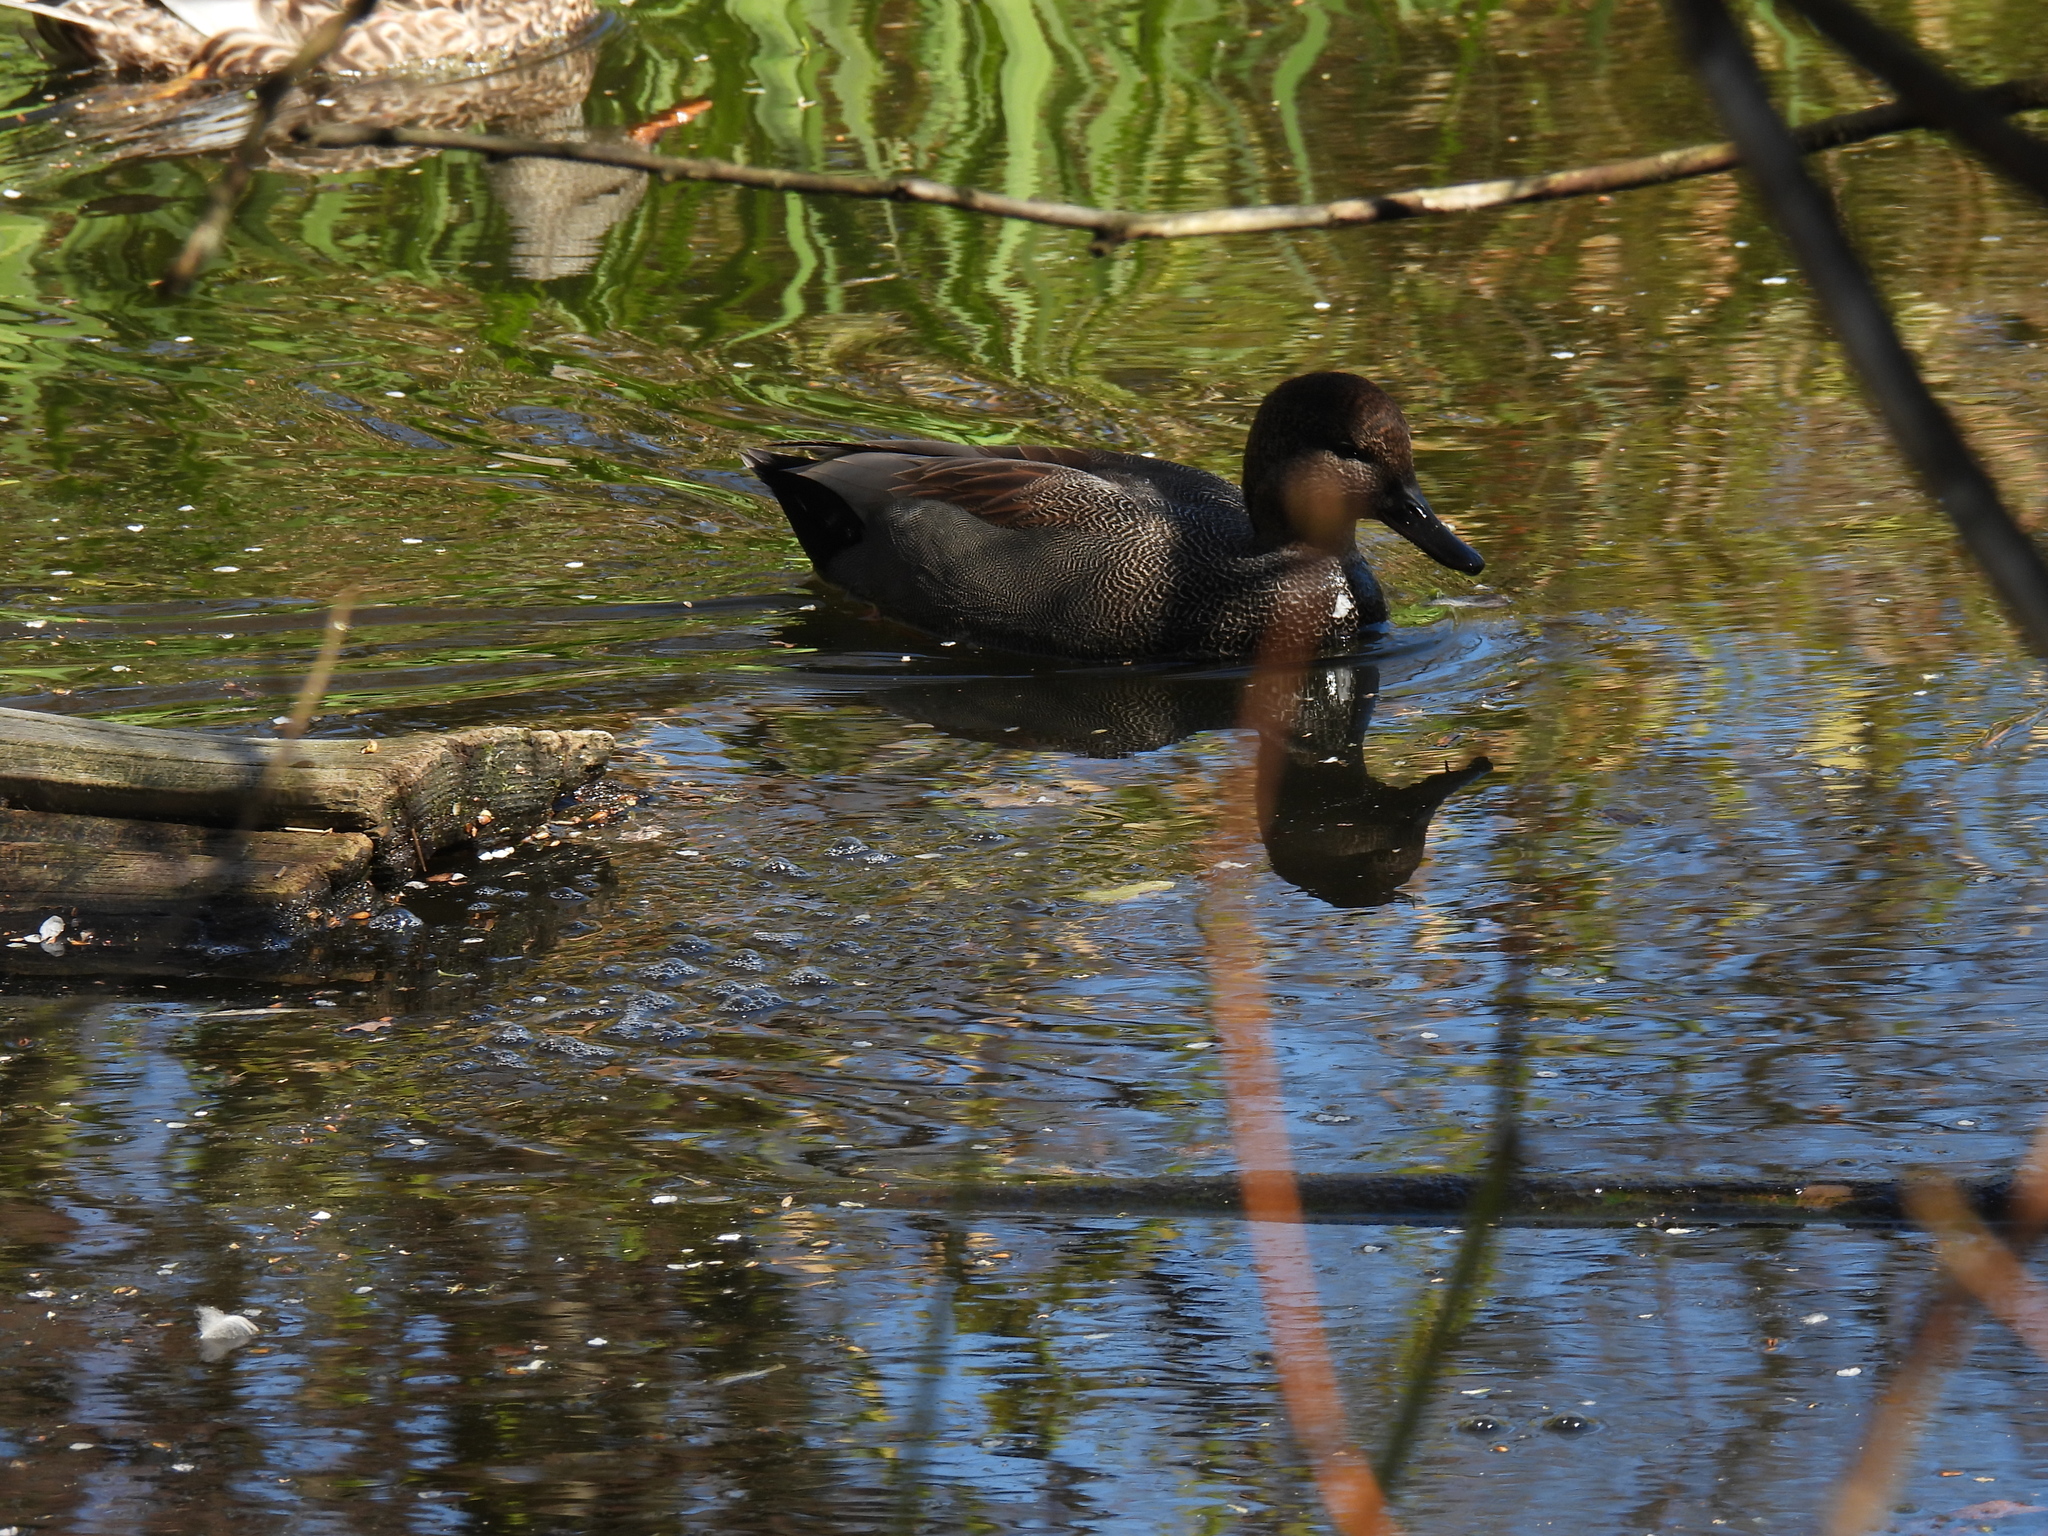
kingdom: Animalia
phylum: Chordata
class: Aves
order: Anseriformes
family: Anatidae
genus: Mareca
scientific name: Mareca strepera
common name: Gadwall
